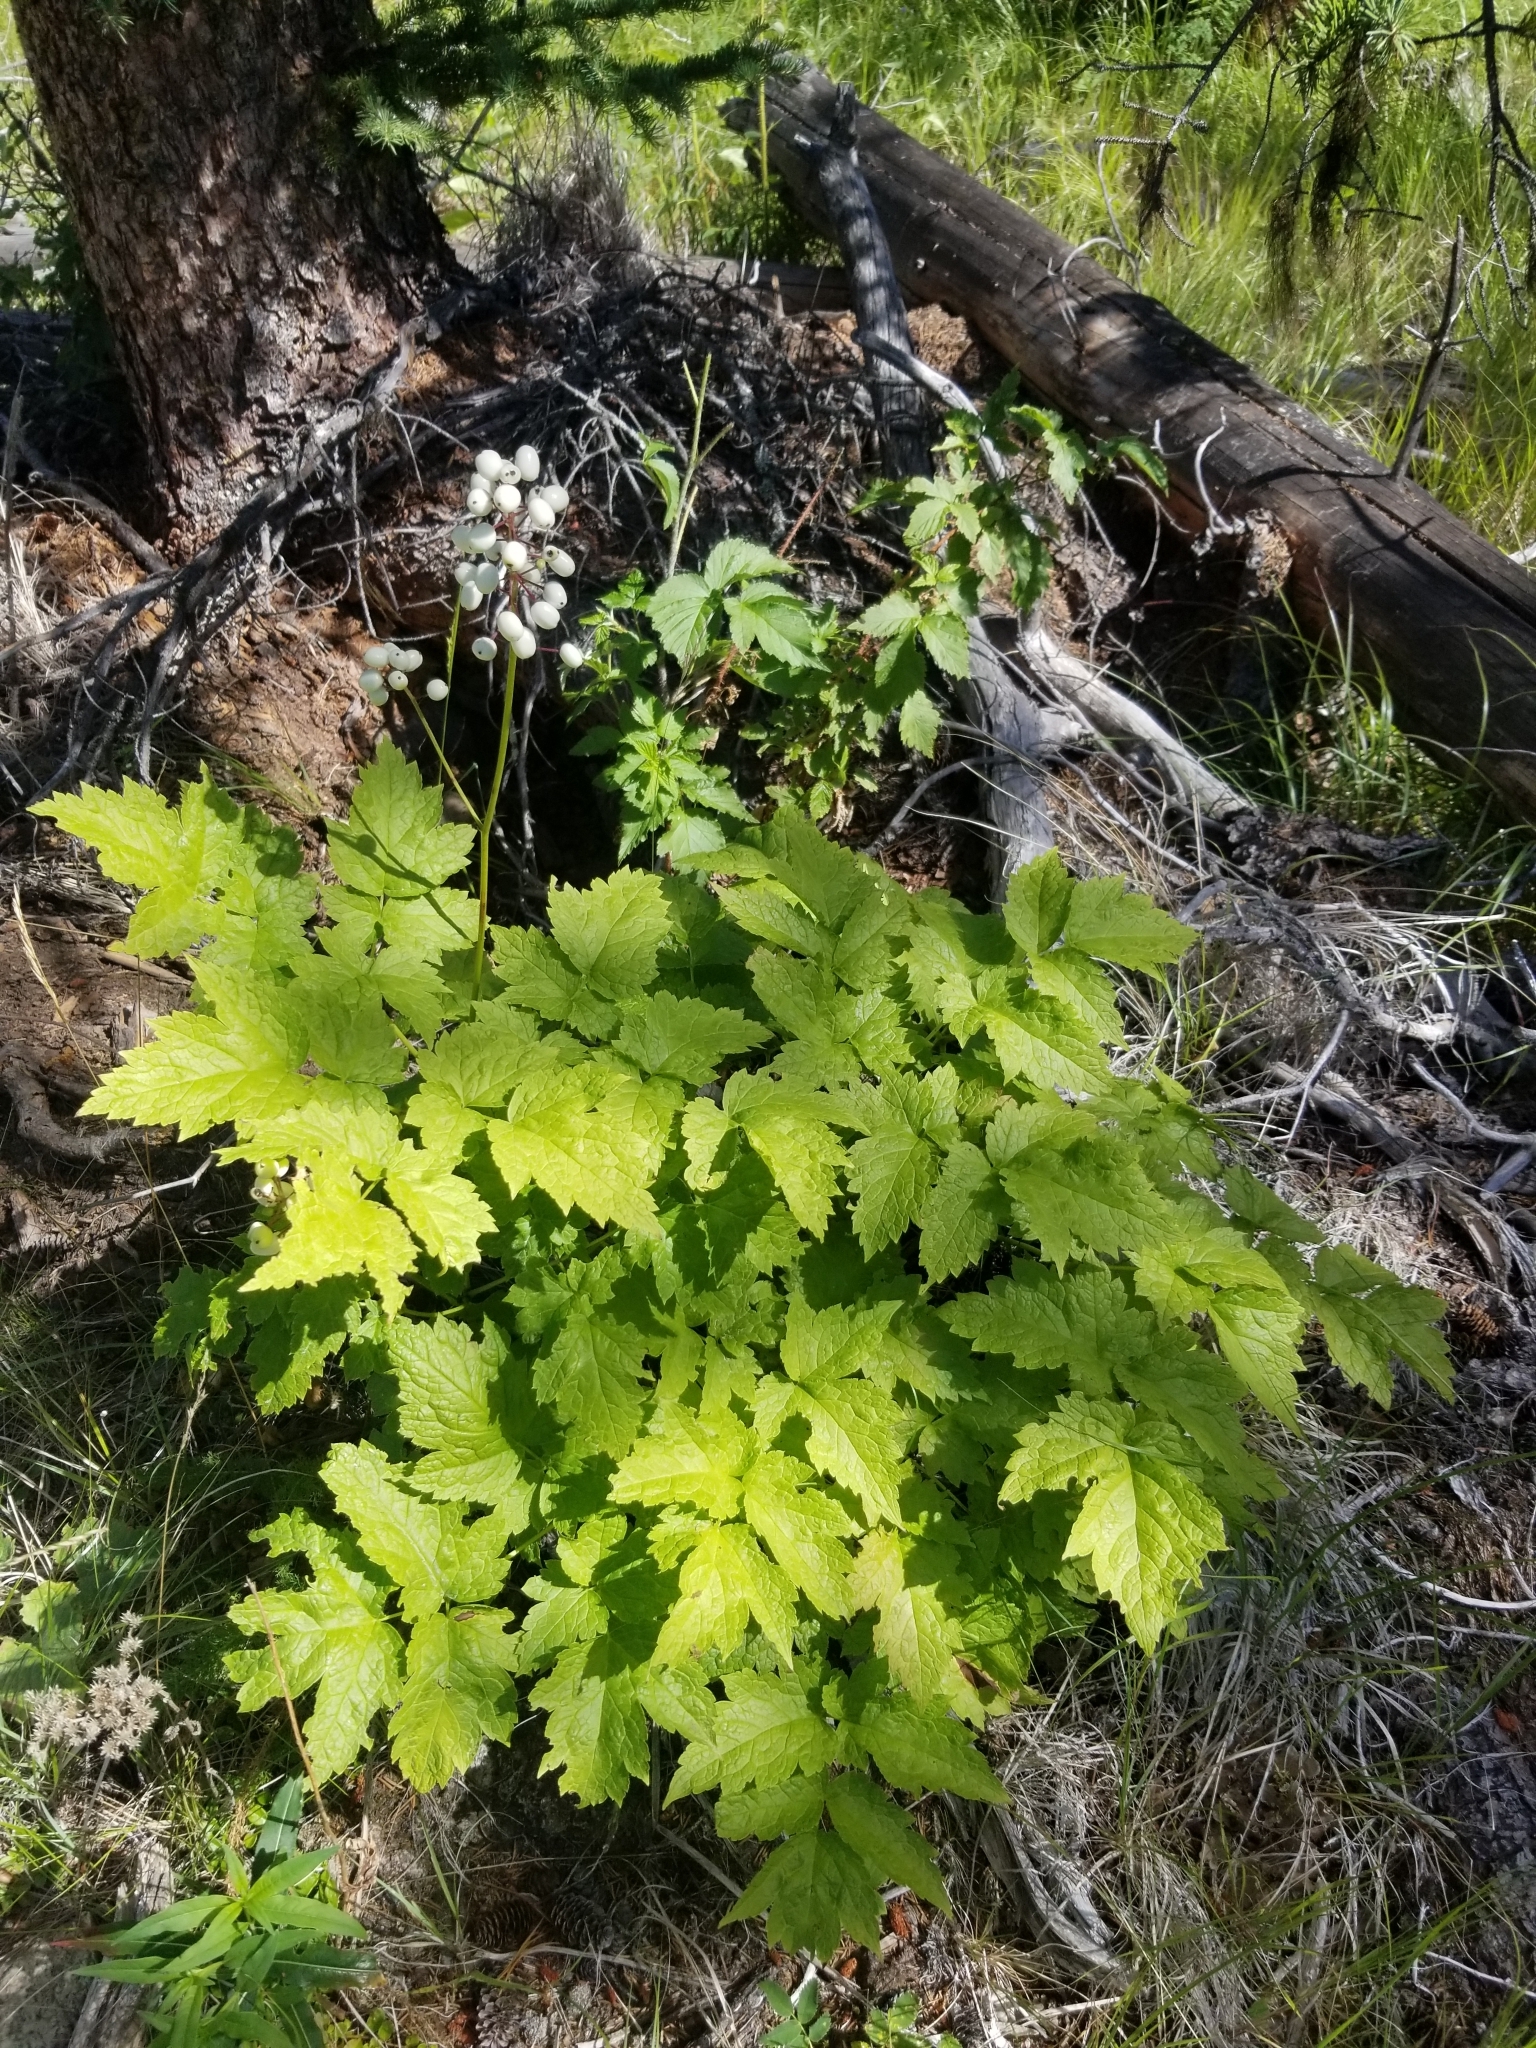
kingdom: Plantae
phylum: Tracheophyta
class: Magnoliopsida
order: Ranunculales
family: Ranunculaceae
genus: Actaea
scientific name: Actaea rubra
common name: Red baneberry
